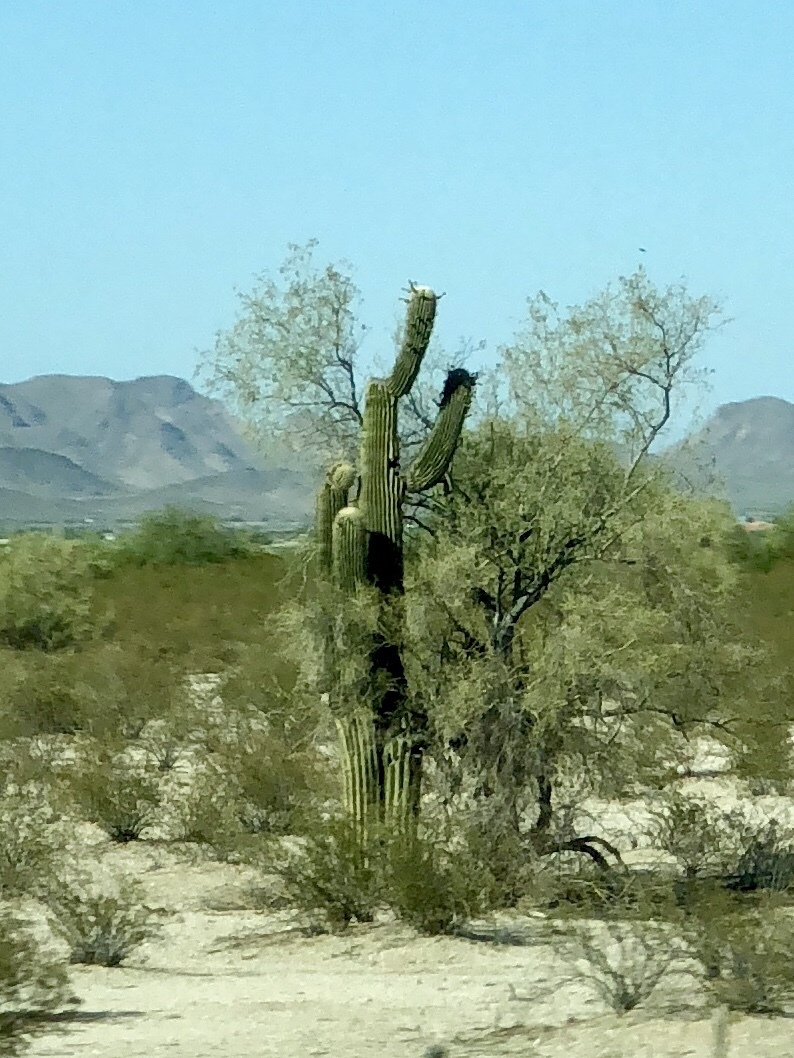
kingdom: Plantae
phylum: Tracheophyta
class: Magnoliopsida
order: Caryophyllales
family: Cactaceae
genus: Carnegiea
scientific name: Carnegiea gigantea
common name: Saguaro
